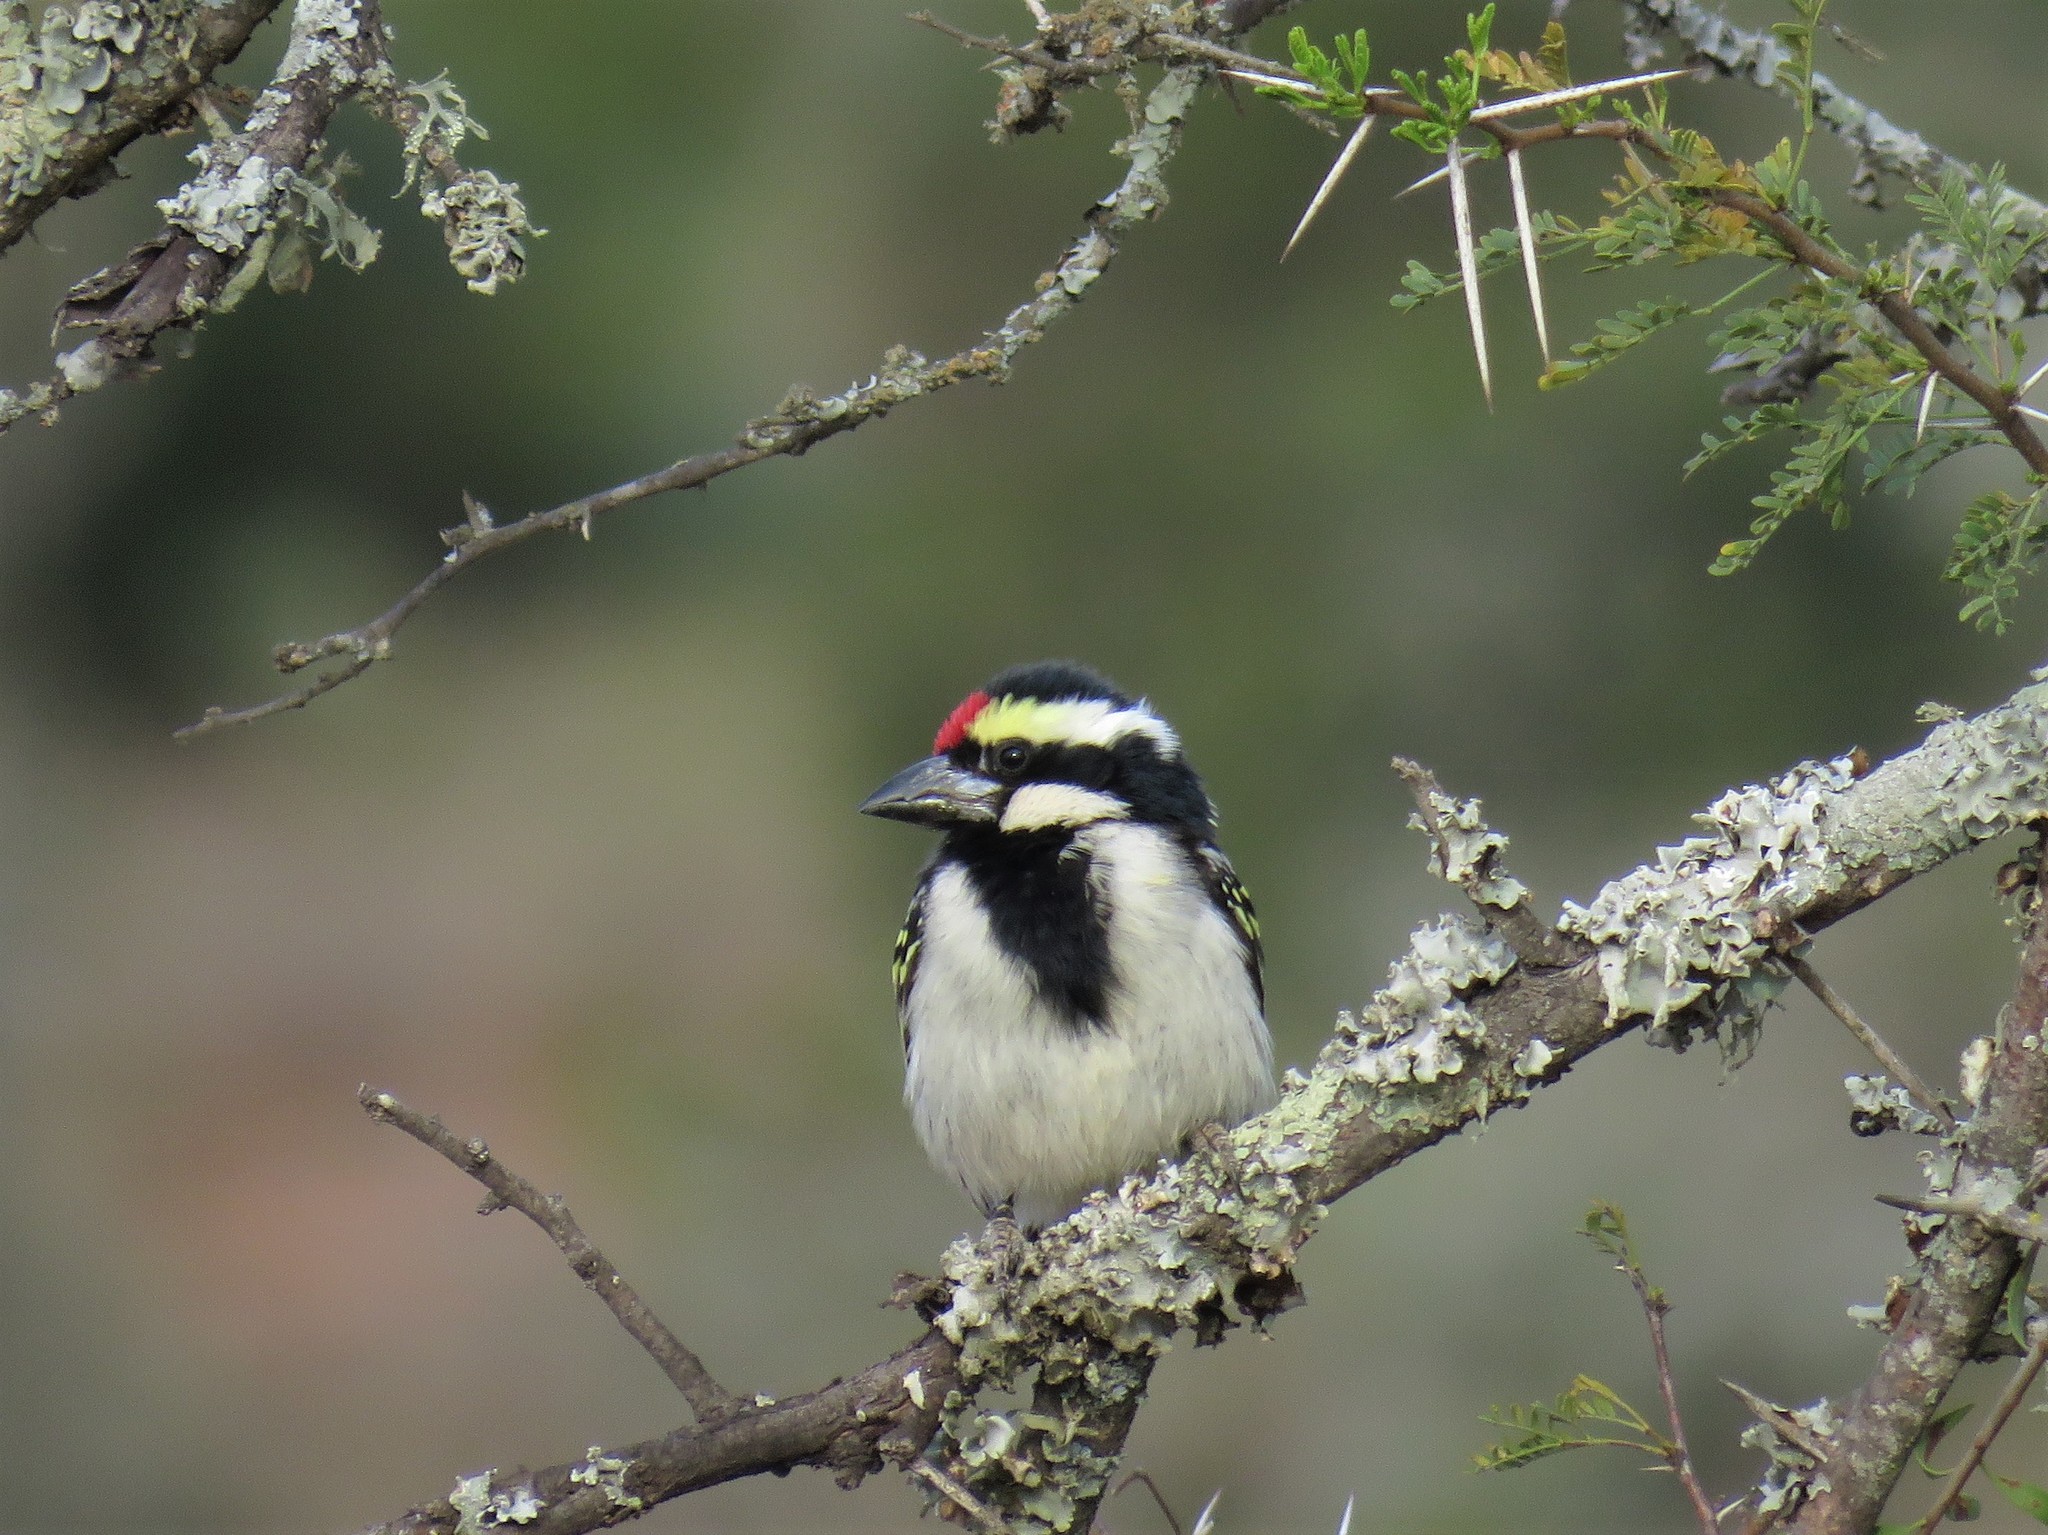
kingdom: Animalia
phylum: Chordata
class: Aves
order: Piciformes
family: Lybiidae
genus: Tricholaema
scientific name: Tricholaema leucomelas
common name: Acacia pied barbet
